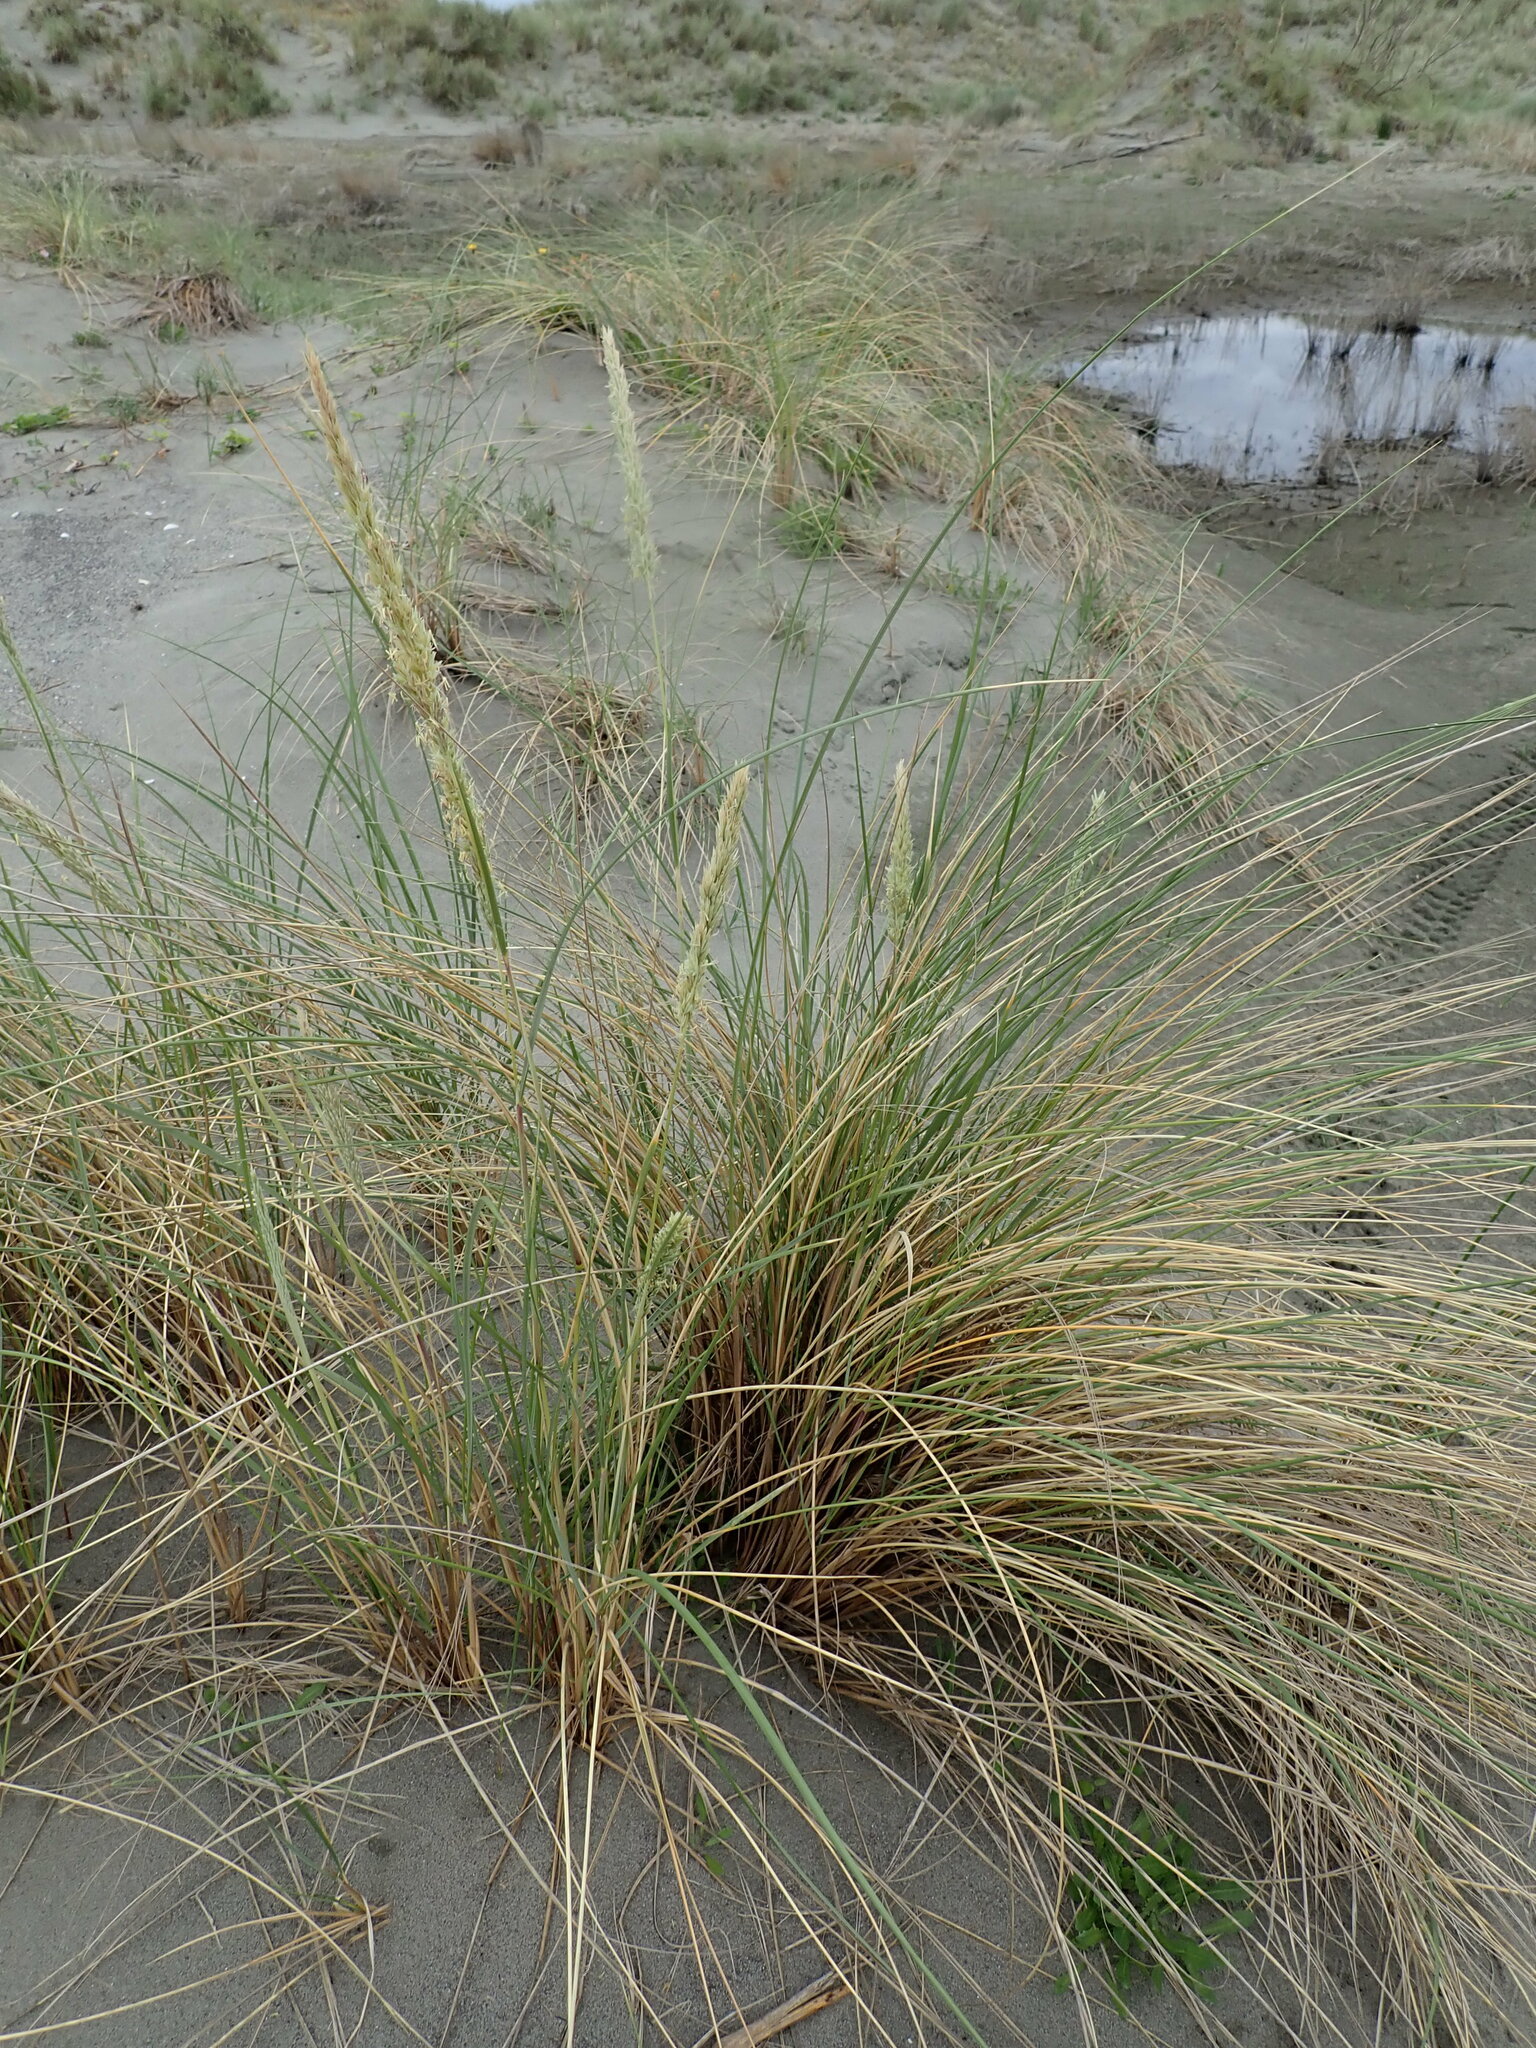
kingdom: Plantae
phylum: Tracheophyta
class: Liliopsida
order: Poales
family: Poaceae
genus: Calamagrostis
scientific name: Calamagrostis arenaria
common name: European beachgrass
